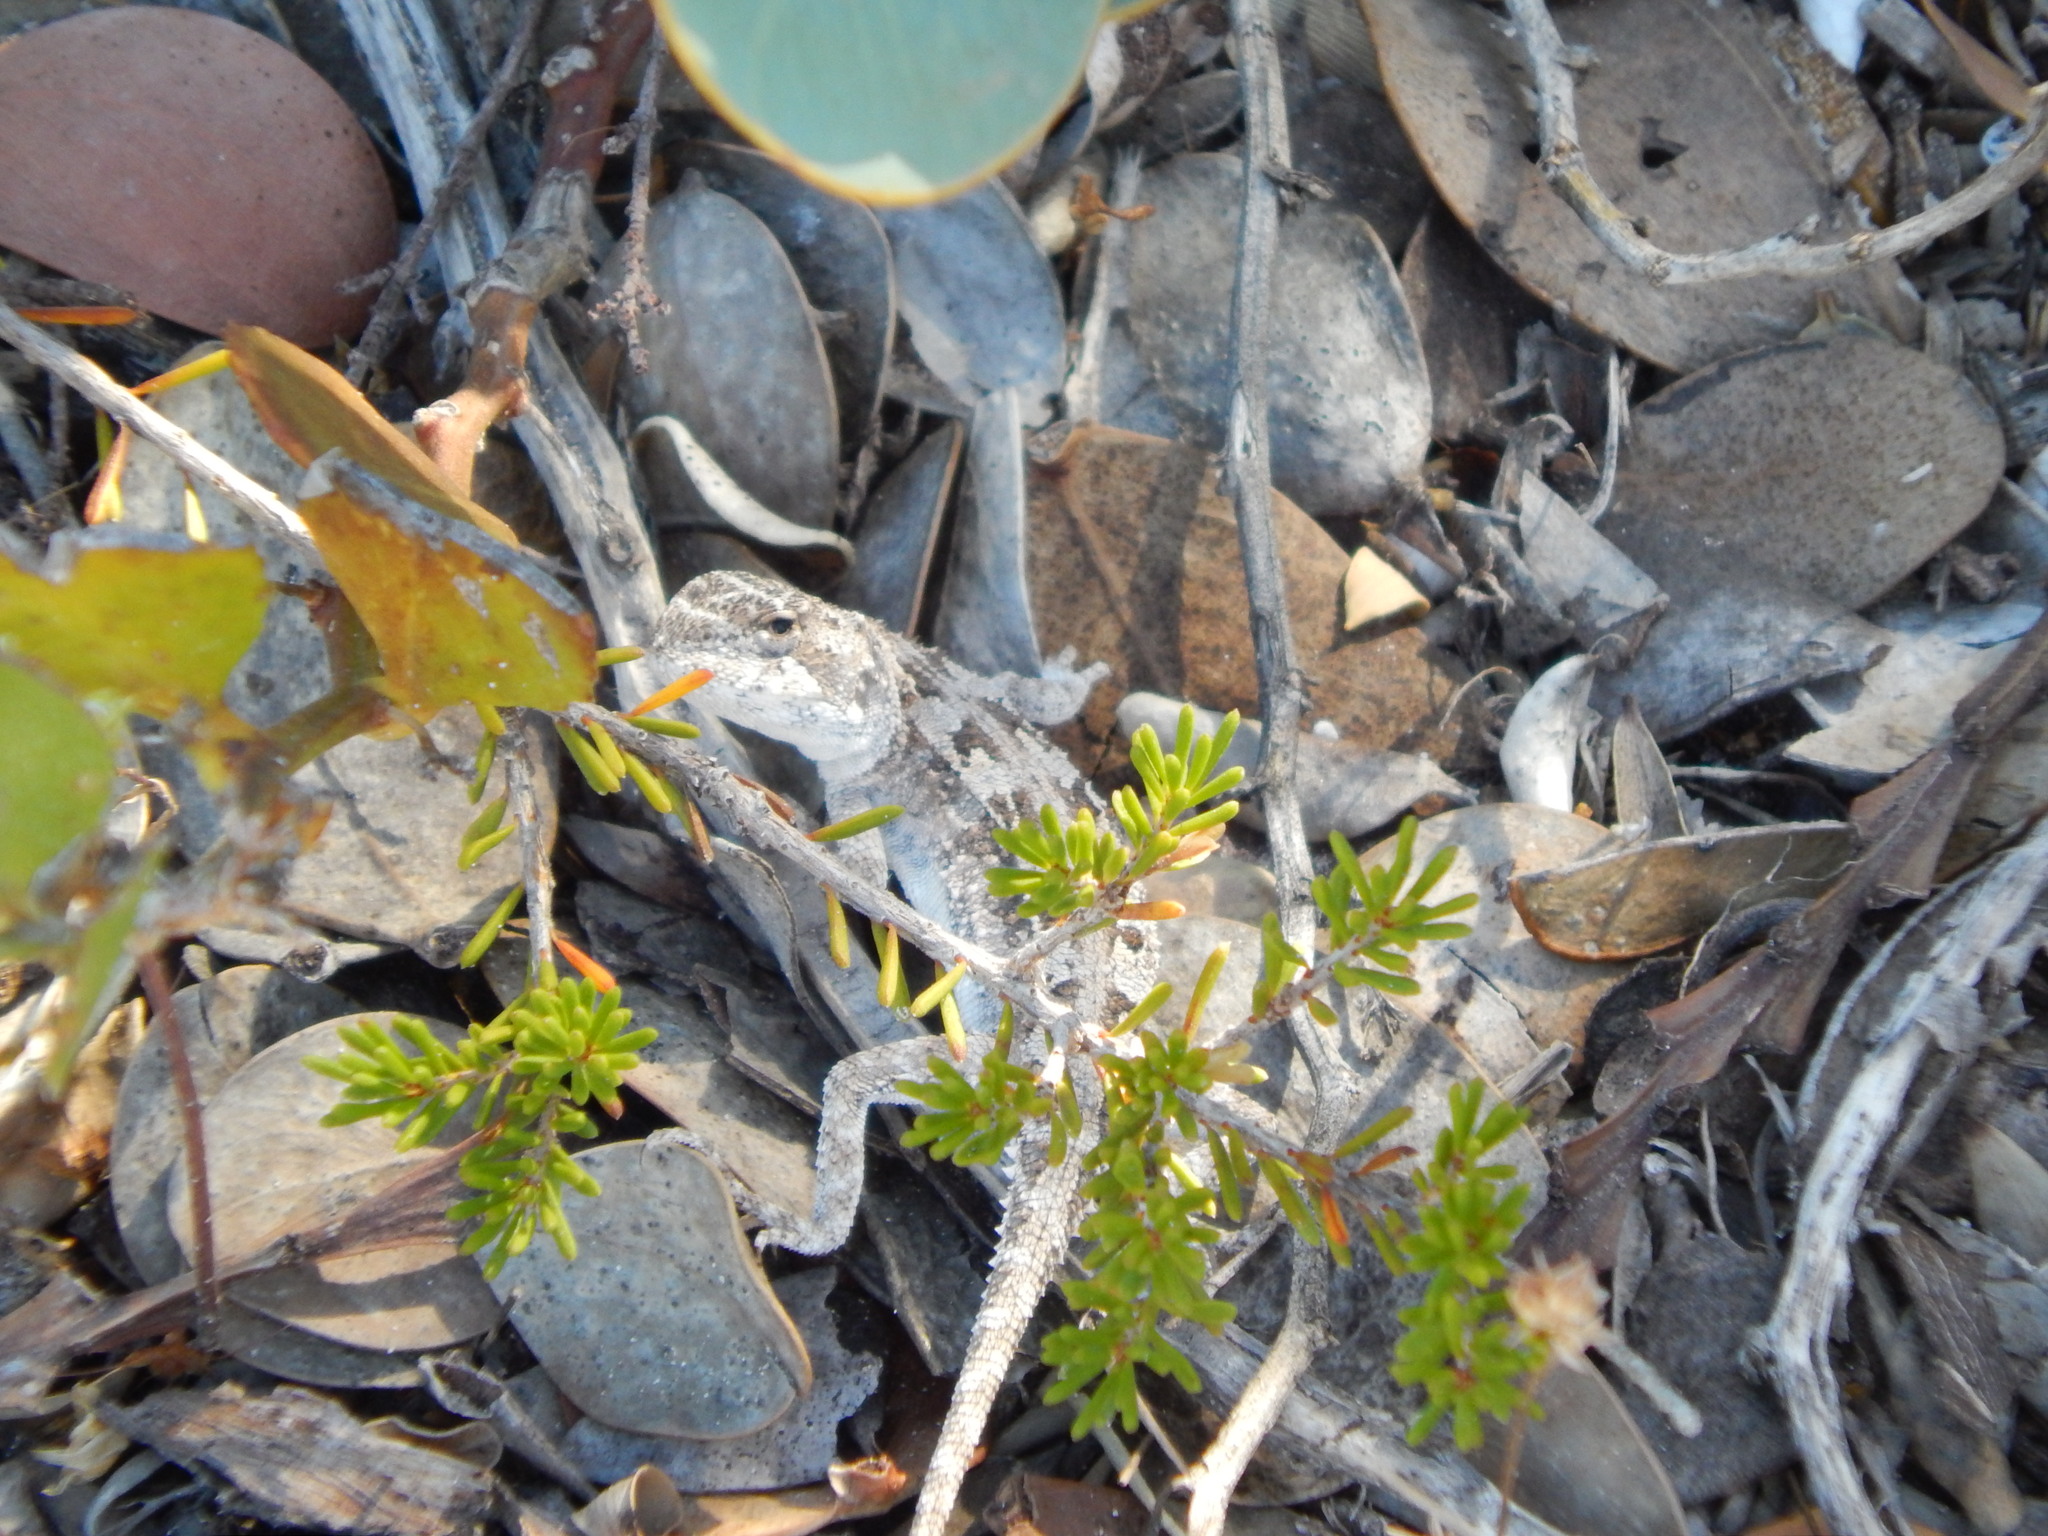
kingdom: Animalia
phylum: Chordata
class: Squamata
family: Agamidae
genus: Ctenophorus
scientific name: Ctenophorus chapmani
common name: Chapman's dragon
